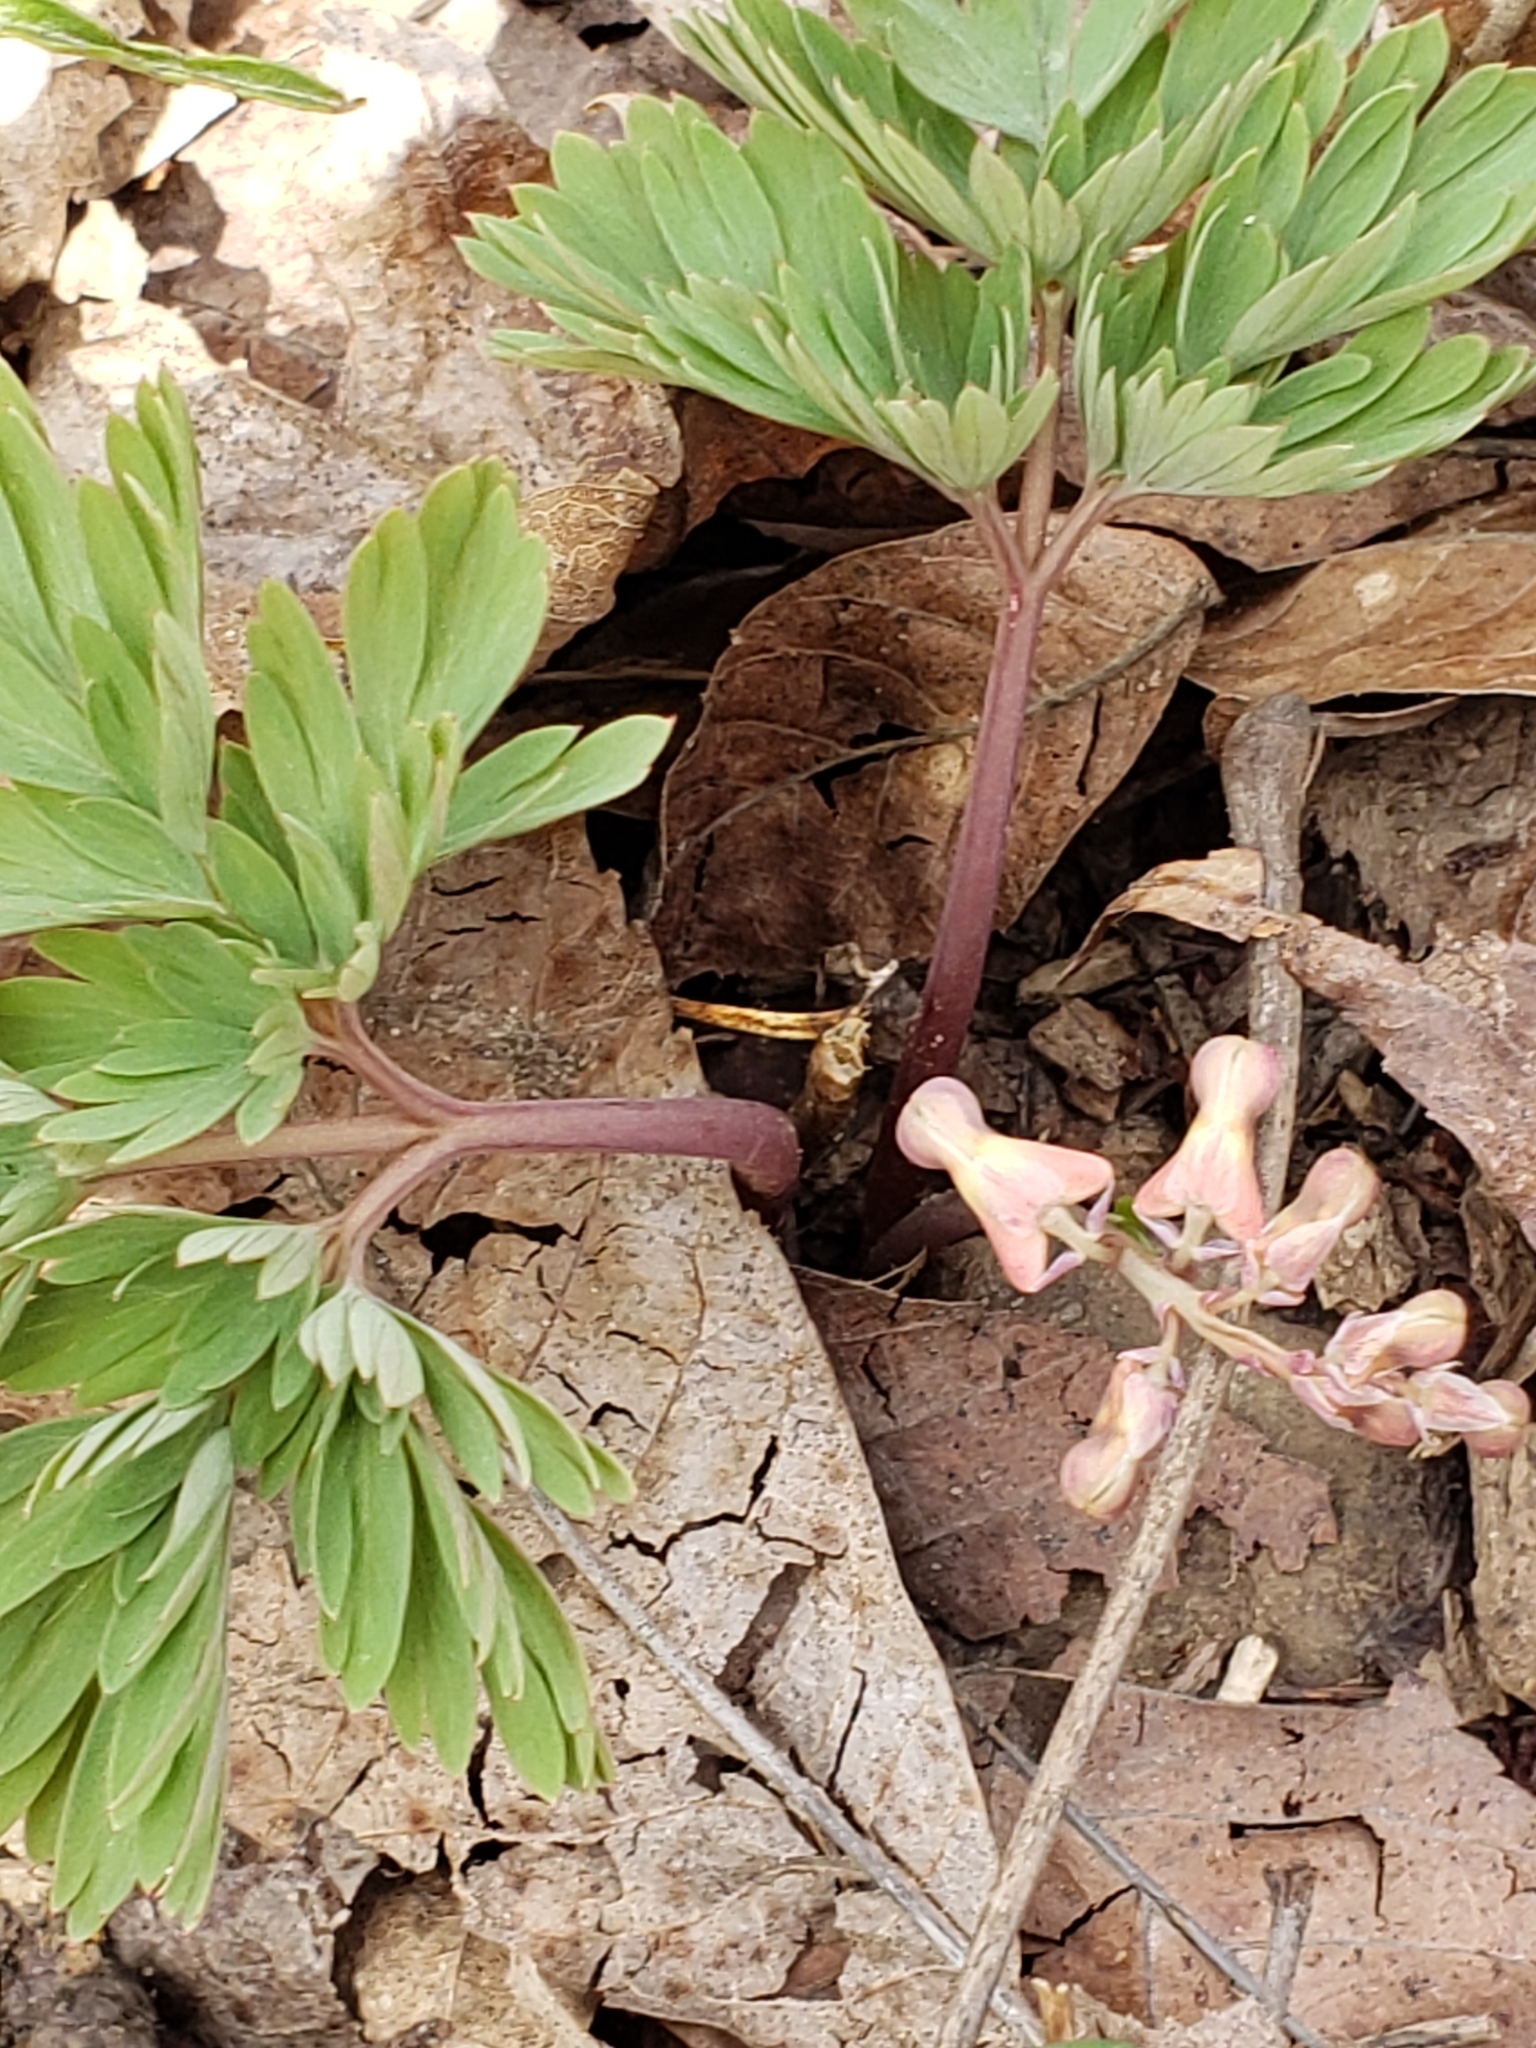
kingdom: Plantae
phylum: Tracheophyta
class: Magnoliopsida
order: Ranunculales
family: Papaveraceae
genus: Dicentra
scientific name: Dicentra cucullaria
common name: Dutchman's breeches
